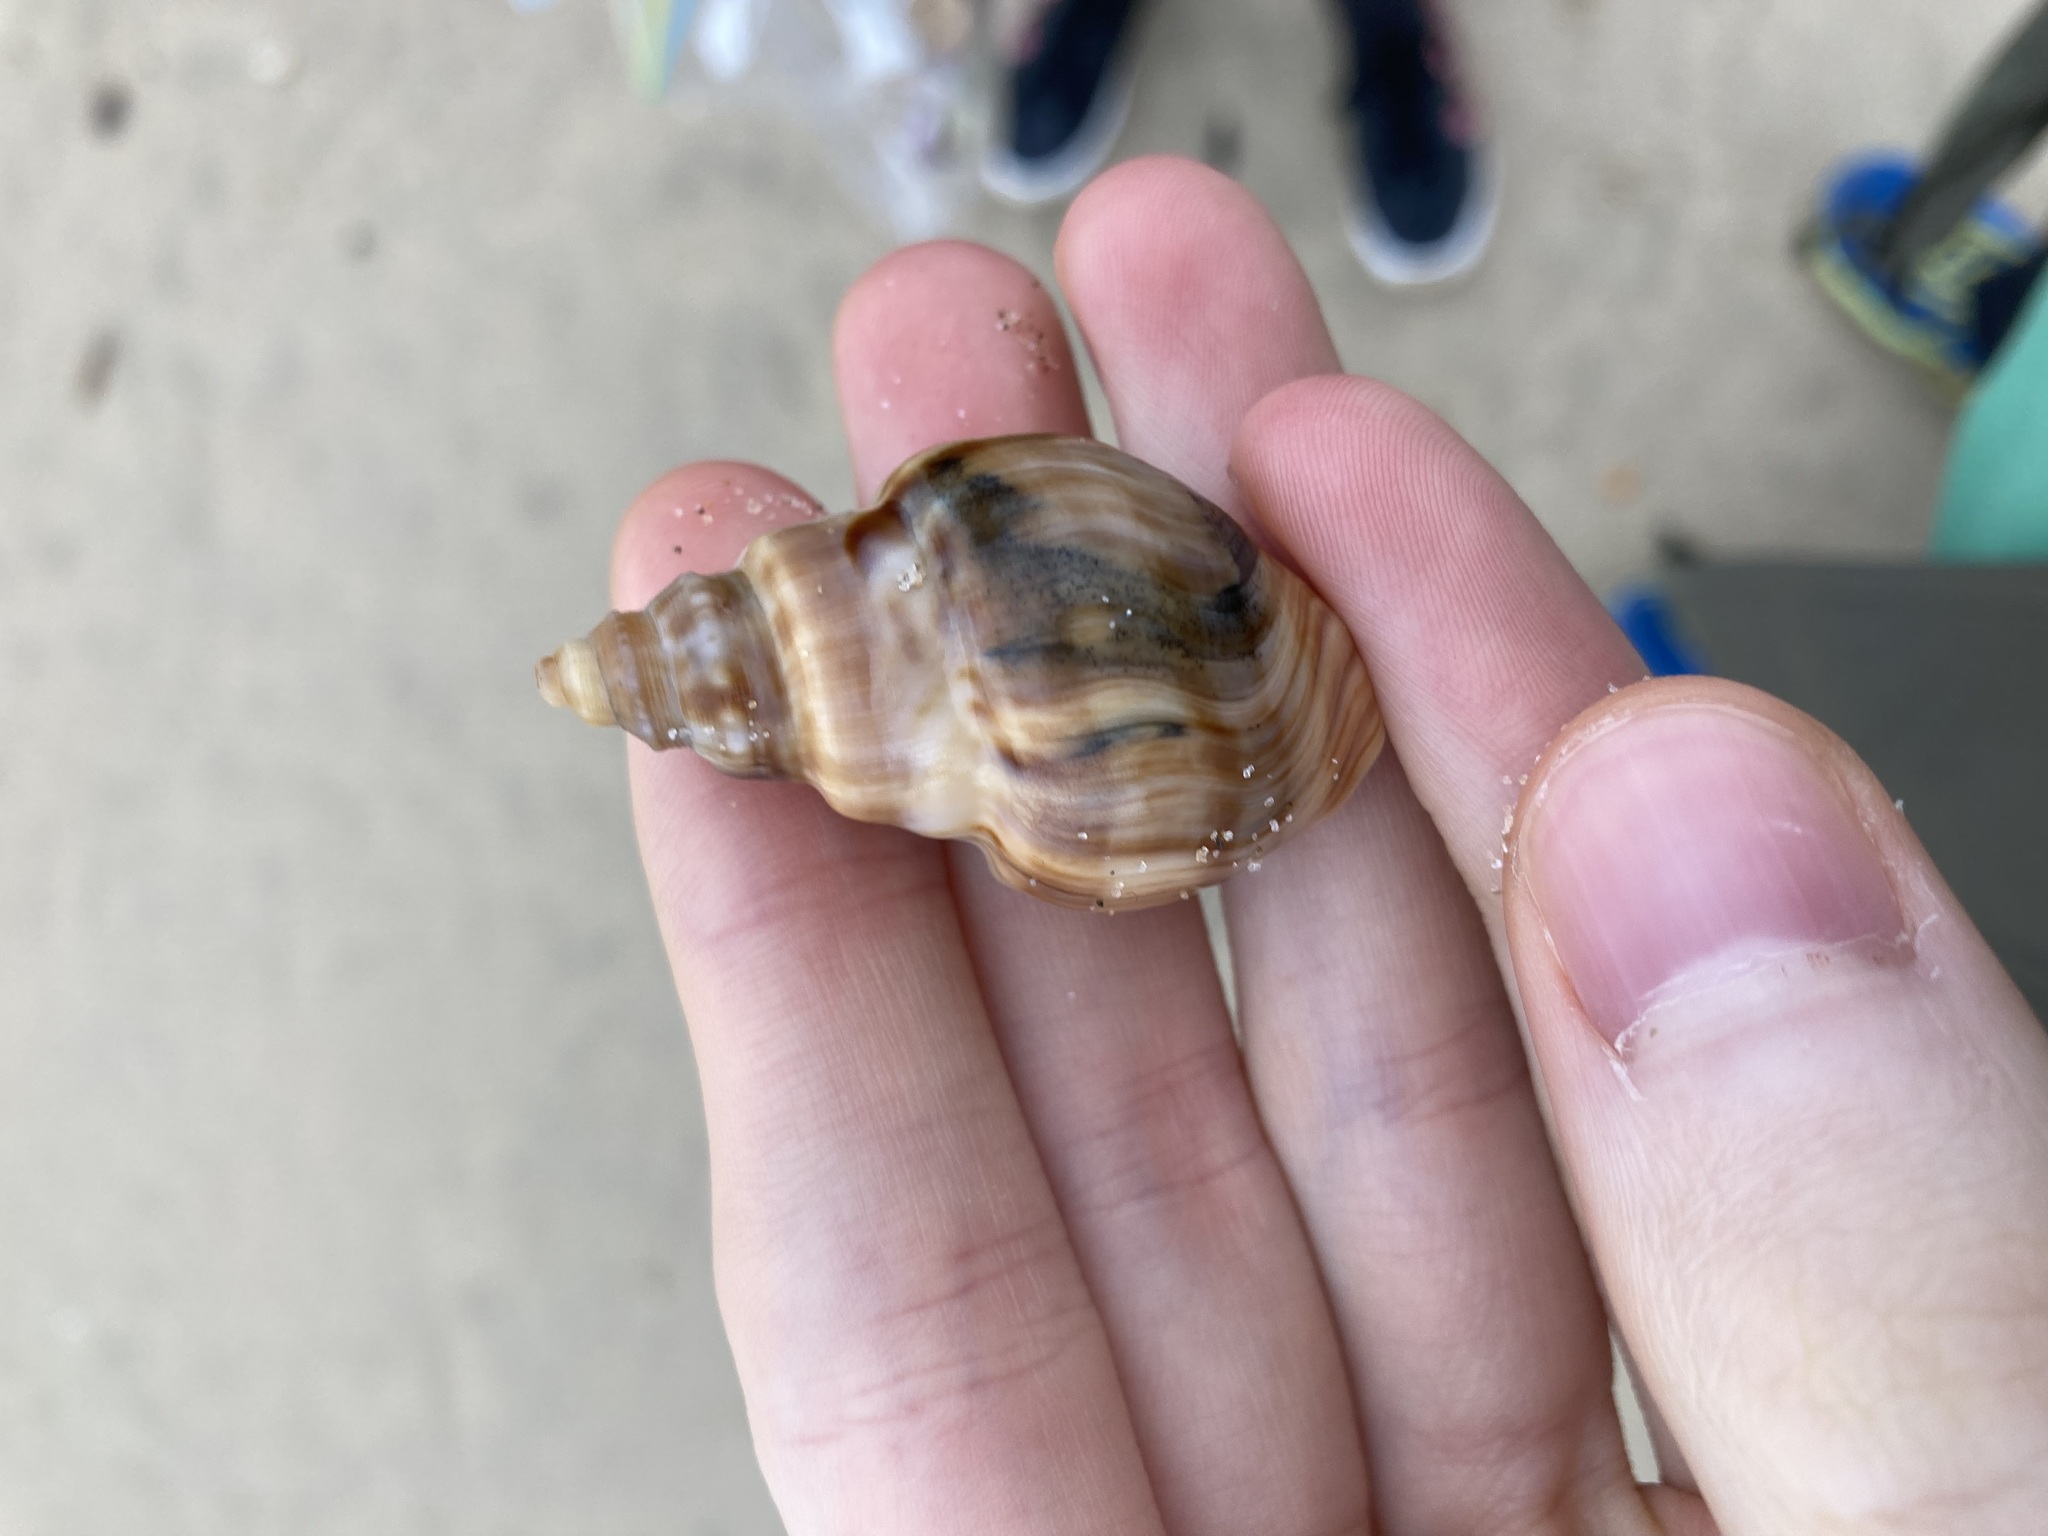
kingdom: Animalia
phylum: Mollusca
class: Gastropoda
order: Littorinimorpha
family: Struthiolariidae
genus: Tylospira
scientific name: Tylospira scutulata
